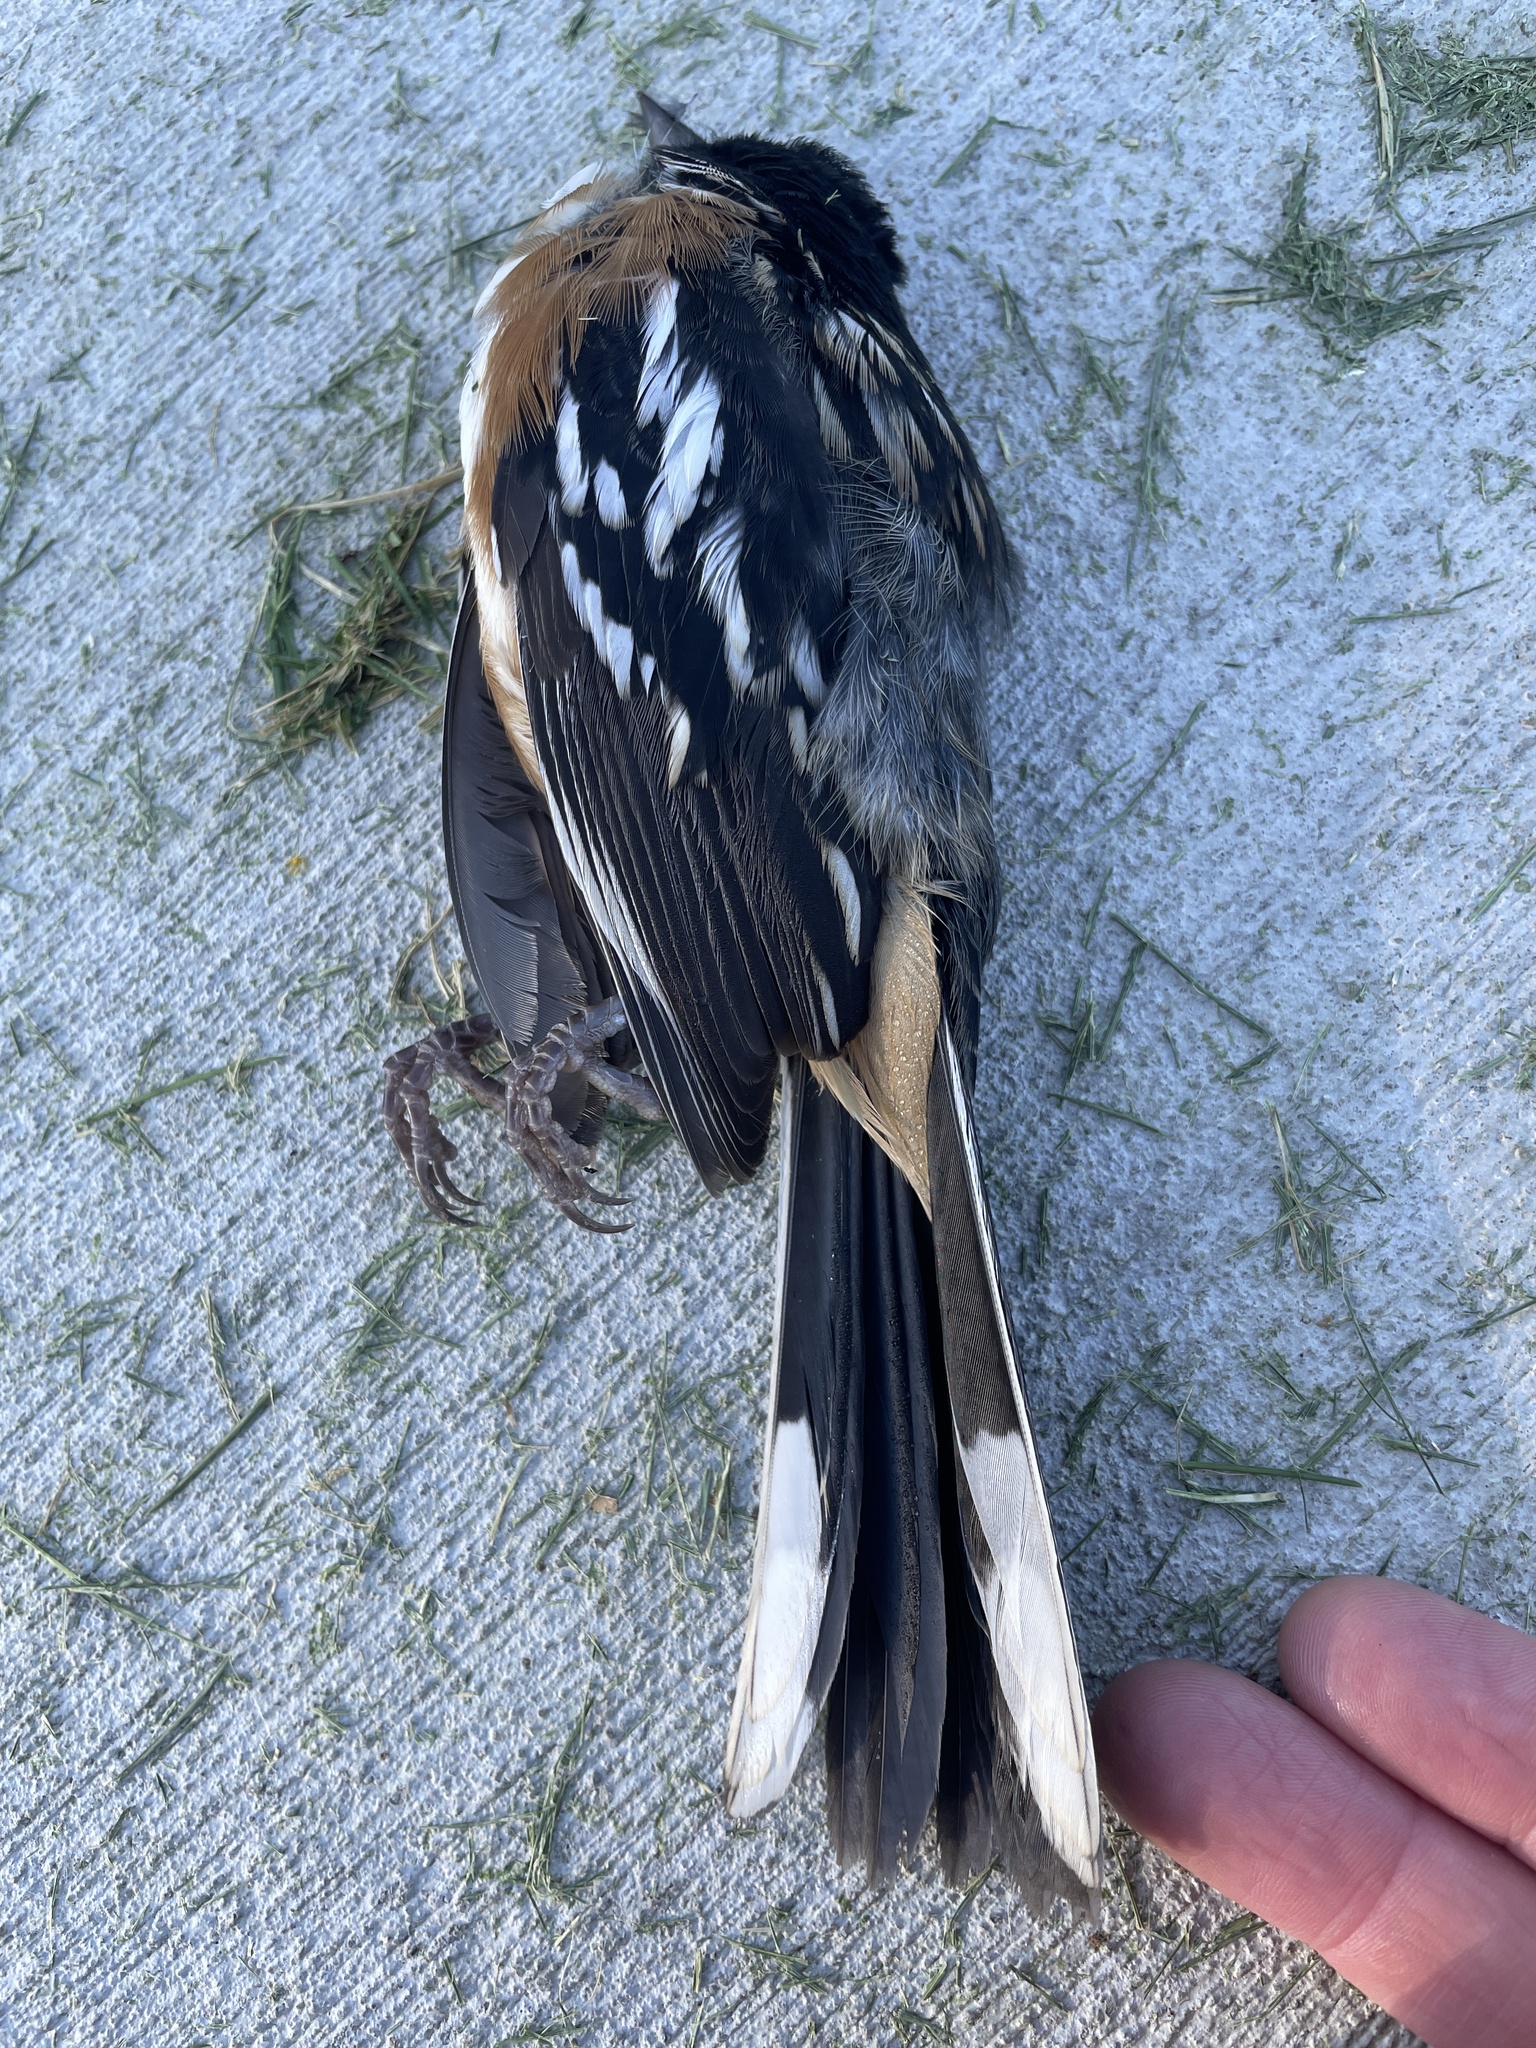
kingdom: Animalia
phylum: Chordata
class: Aves
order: Passeriformes
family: Passerellidae
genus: Pipilo
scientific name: Pipilo maculatus
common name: Spotted towhee
